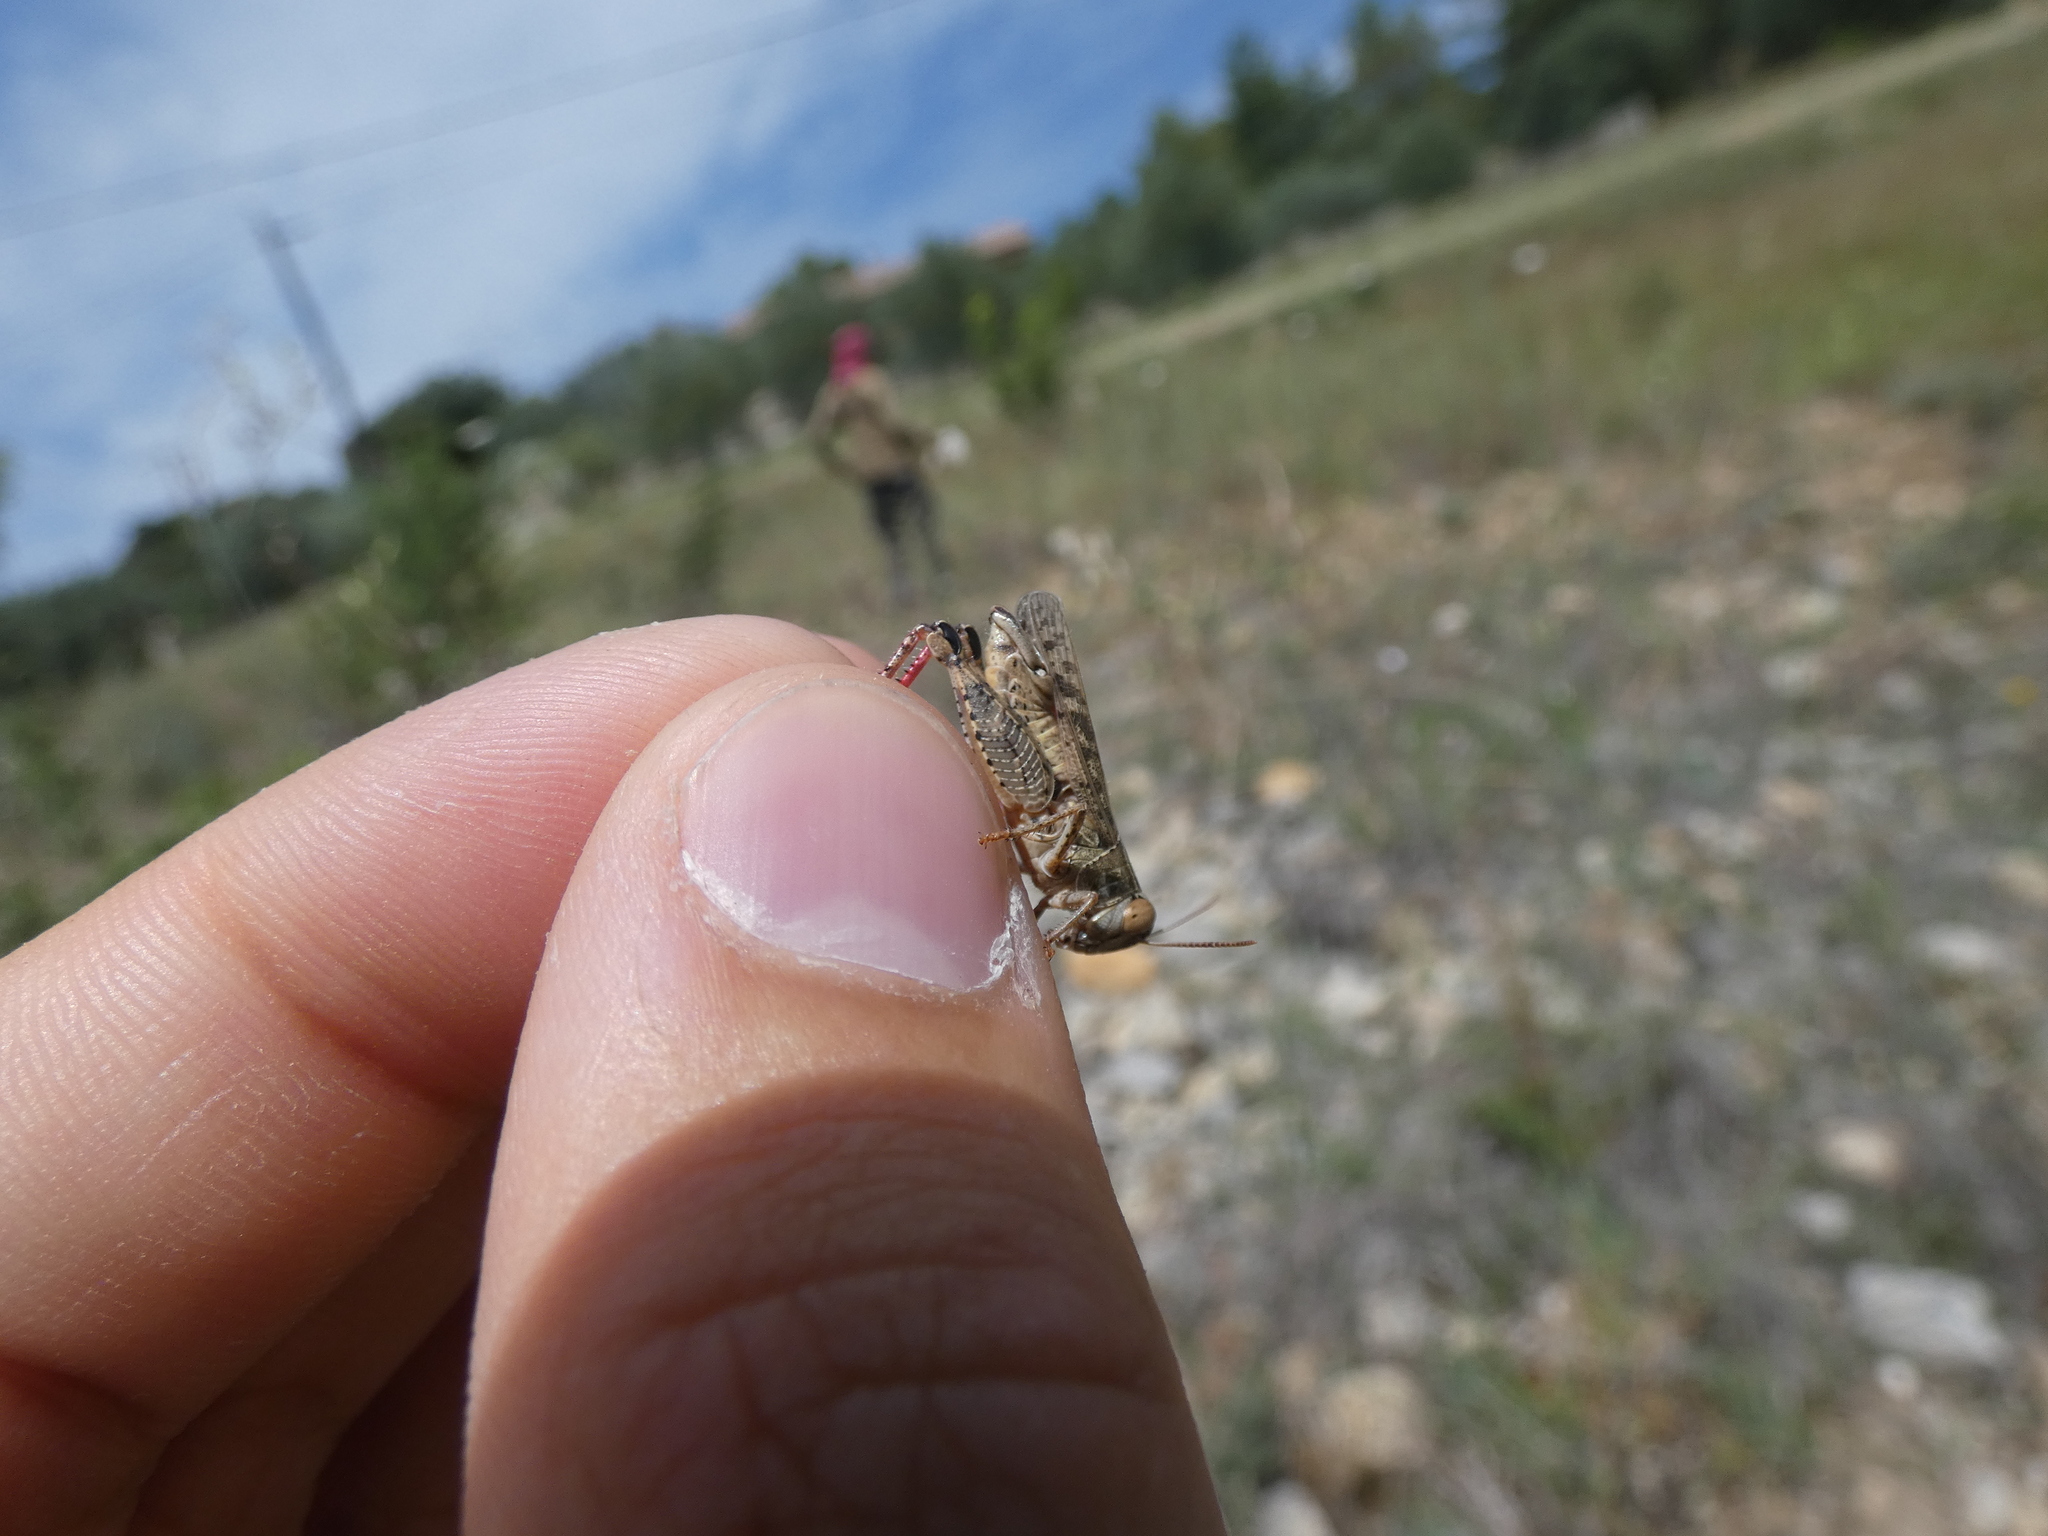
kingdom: Animalia
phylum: Arthropoda
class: Insecta
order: Orthoptera
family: Acrididae
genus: Calliptamus
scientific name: Calliptamus italicus
